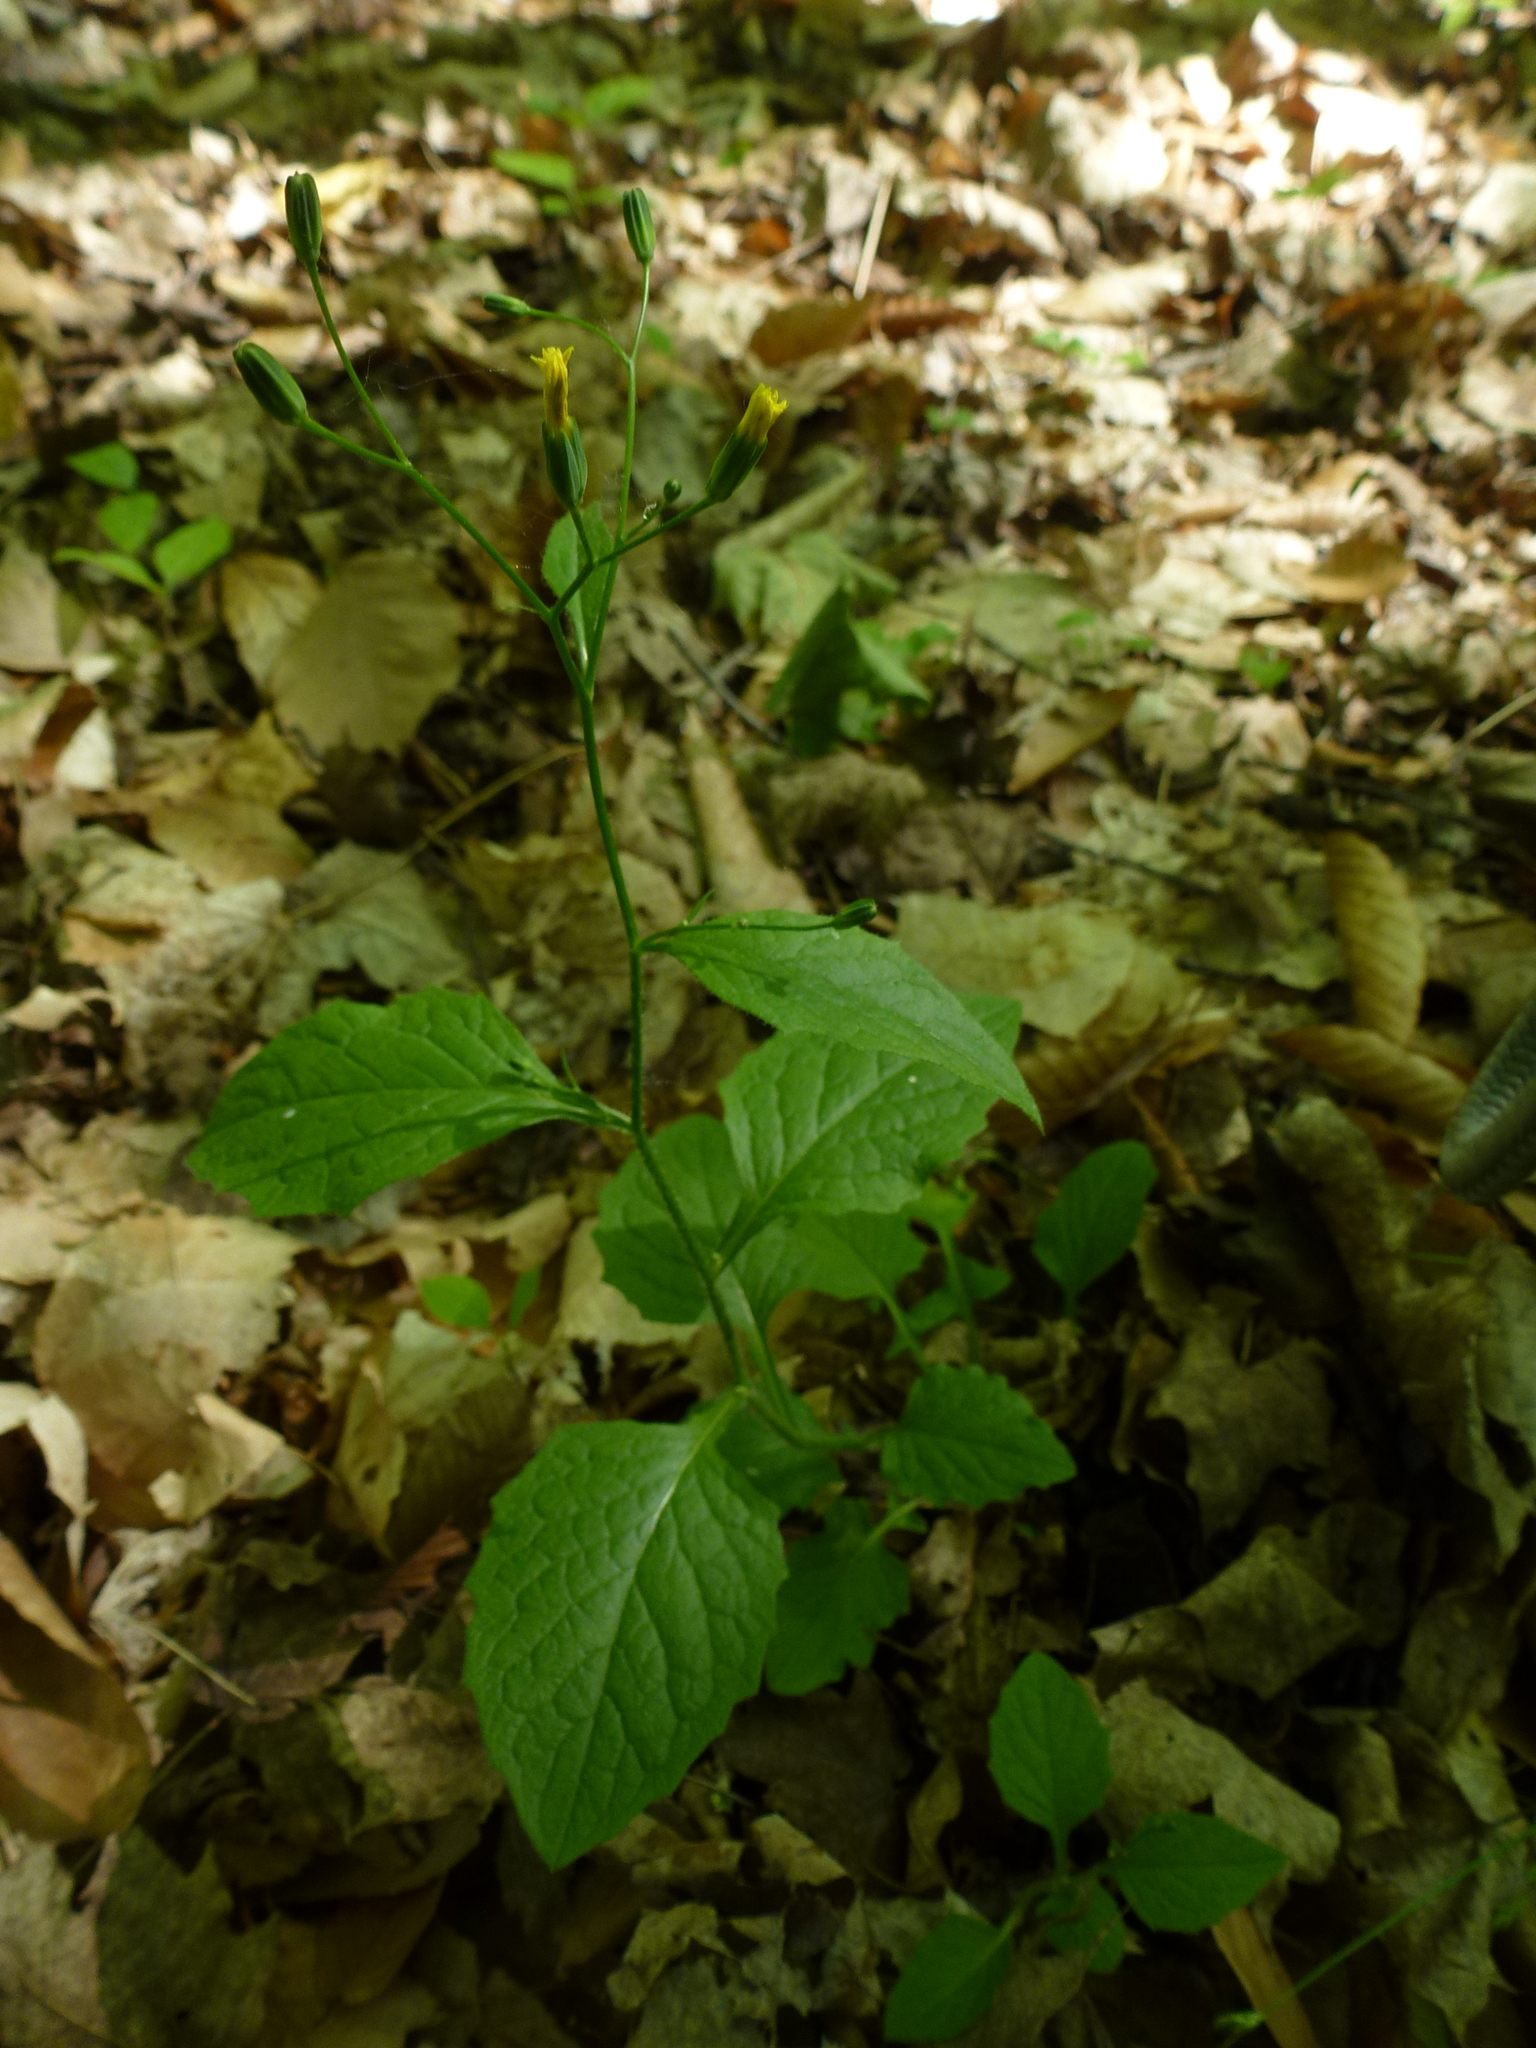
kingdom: Plantae
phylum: Tracheophyta
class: Magnoliopsida
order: Asterales
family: Asteraceae
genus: Lapsana
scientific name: Lapsana communis
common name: Nipplewort
